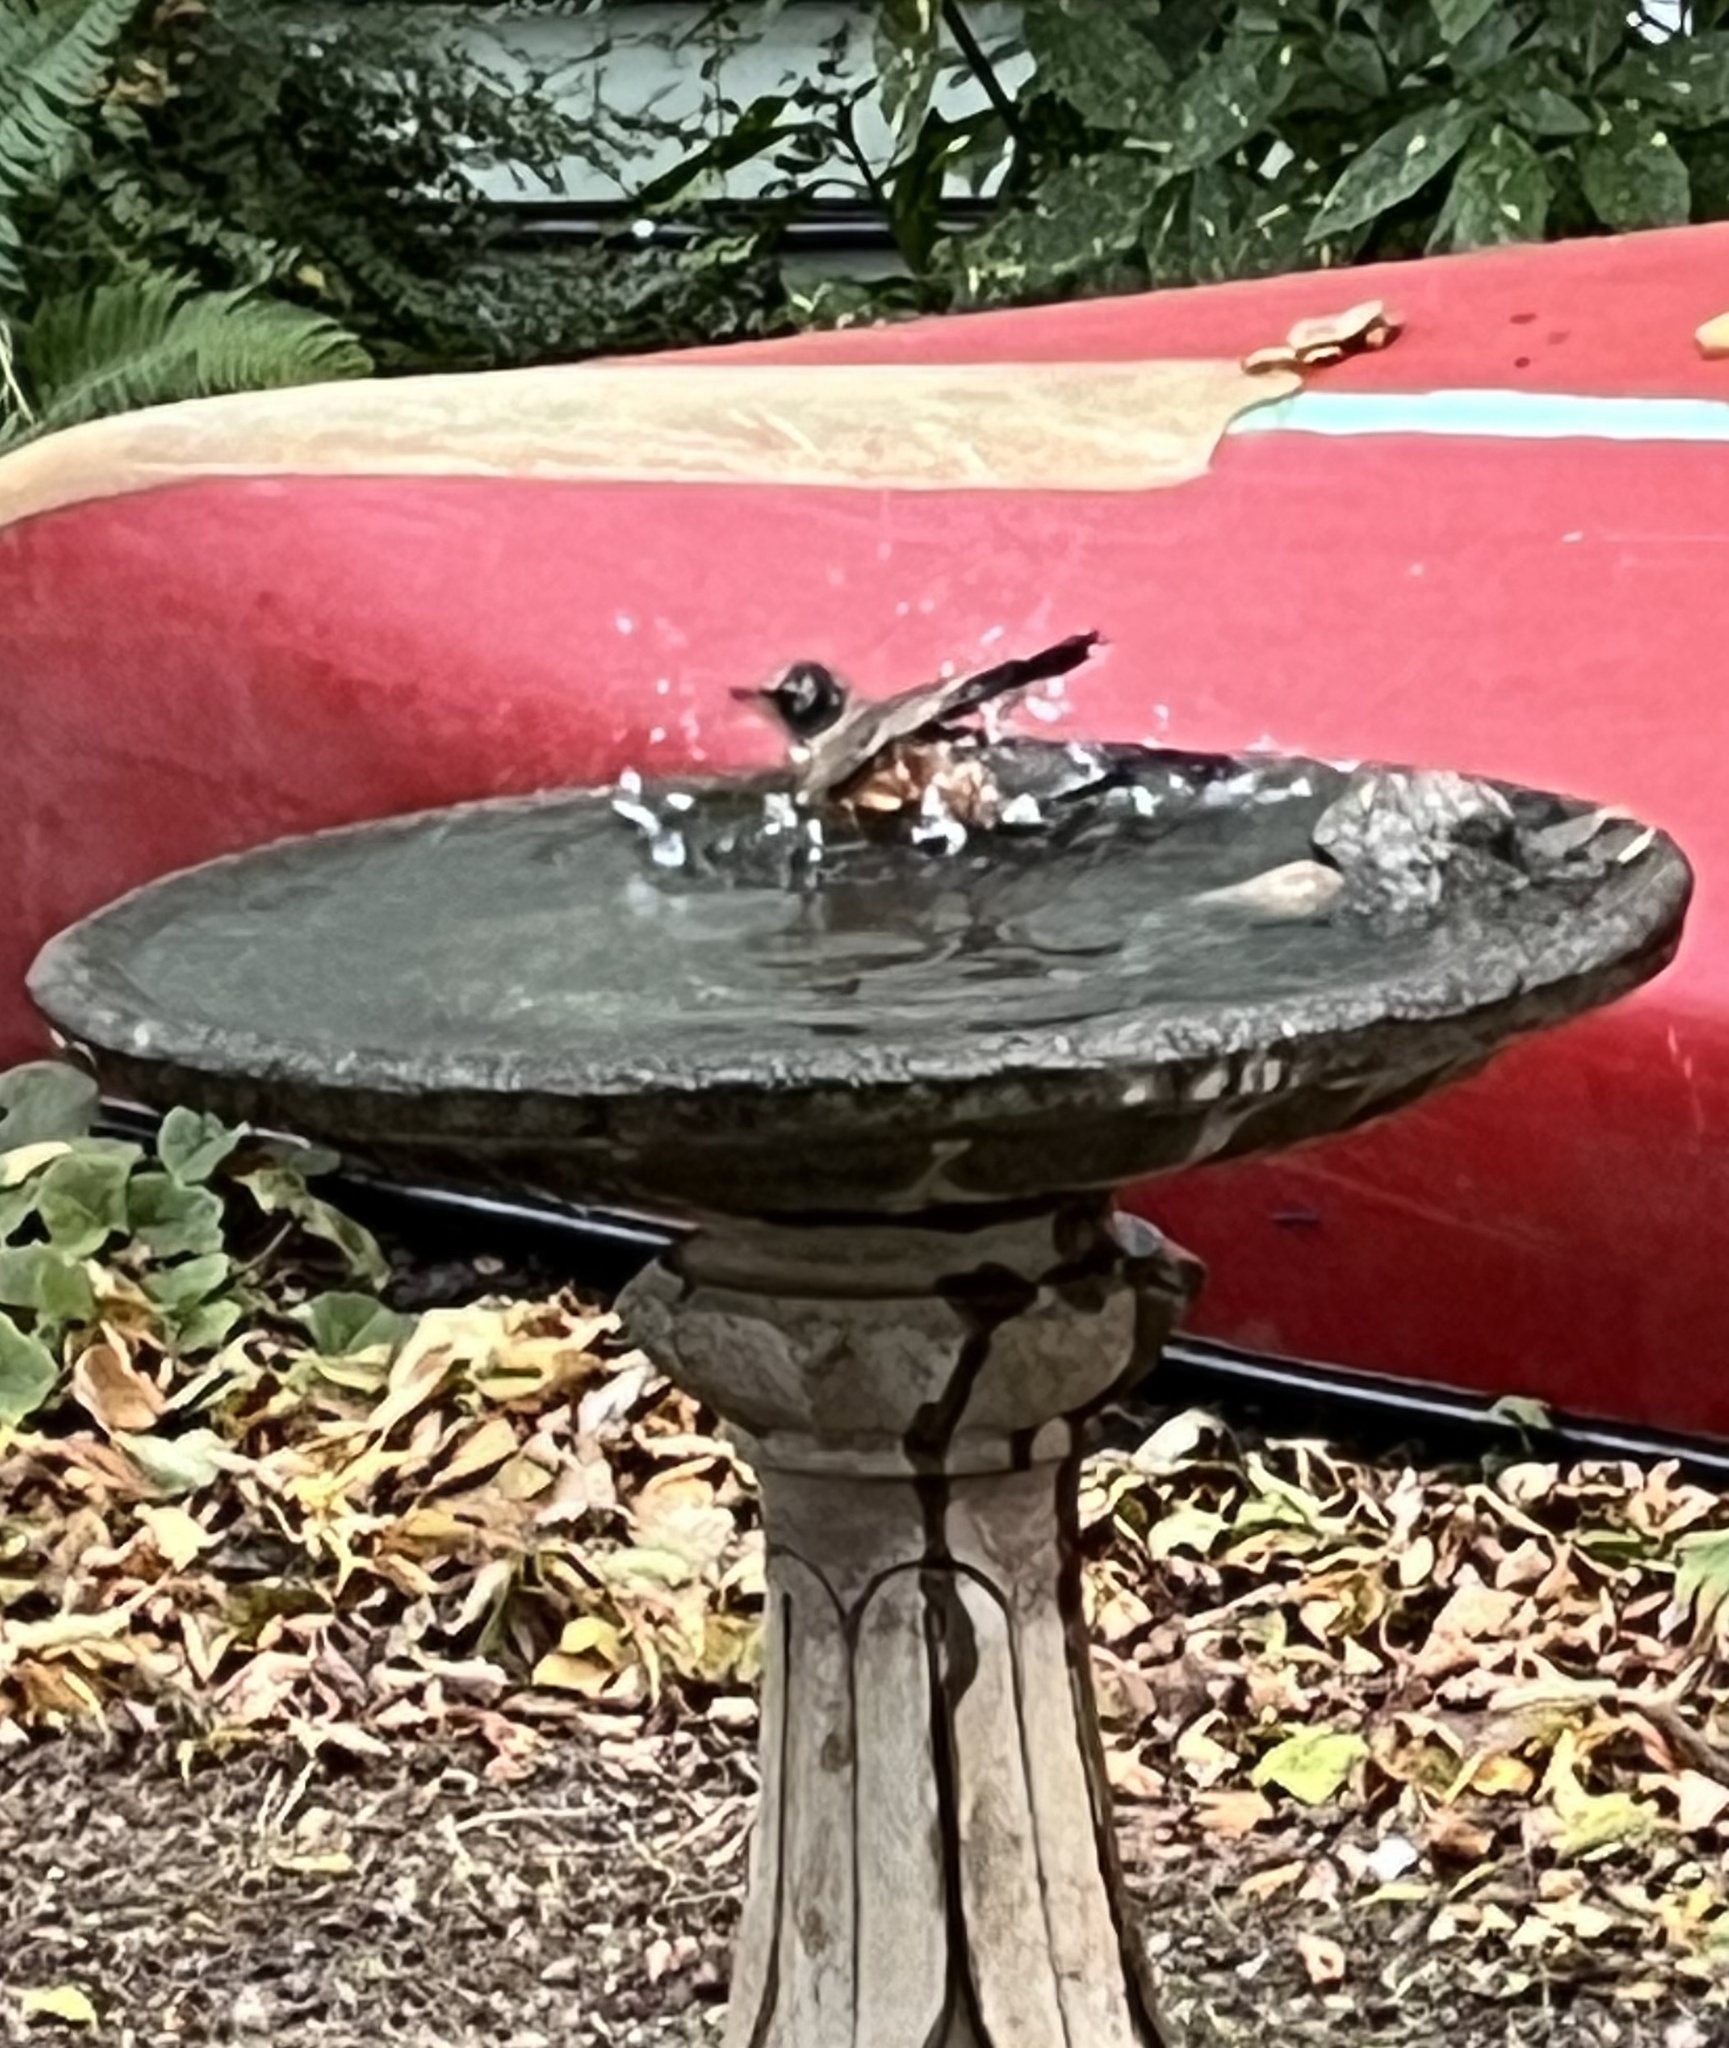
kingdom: Animalia
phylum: Chordata
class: Aves
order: Passeriformes
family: Turdidae
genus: Turdus
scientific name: Turdus migratorius
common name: American robin
